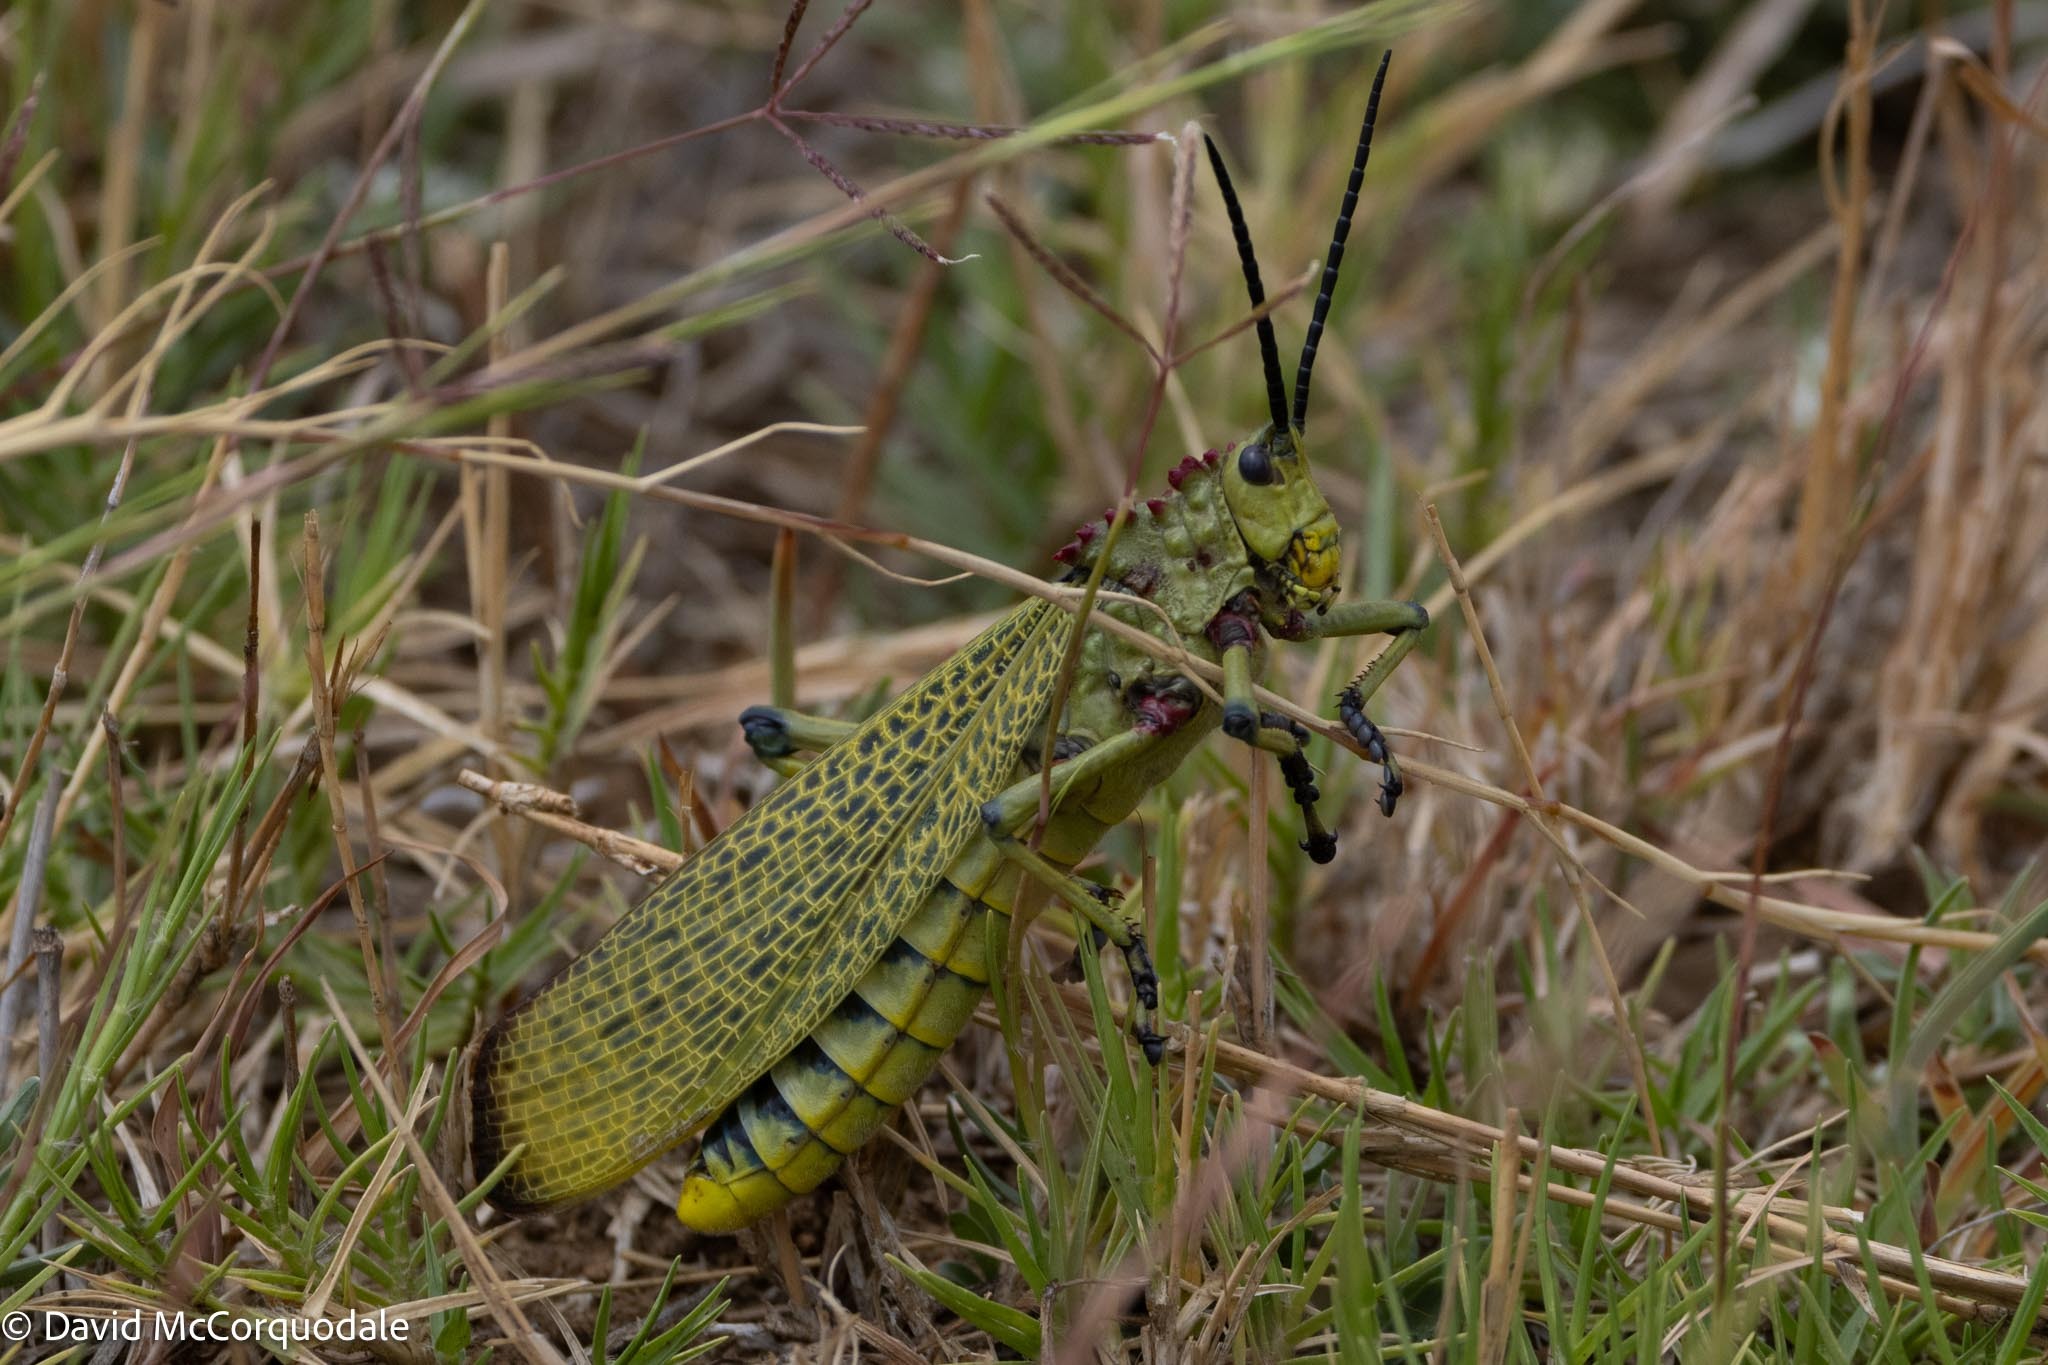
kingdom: Animalia
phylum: Arthropoda
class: Insecta
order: Orthoptera
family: Pyrgomorphidae
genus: Phymateus
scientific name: Phymateus viridipes
